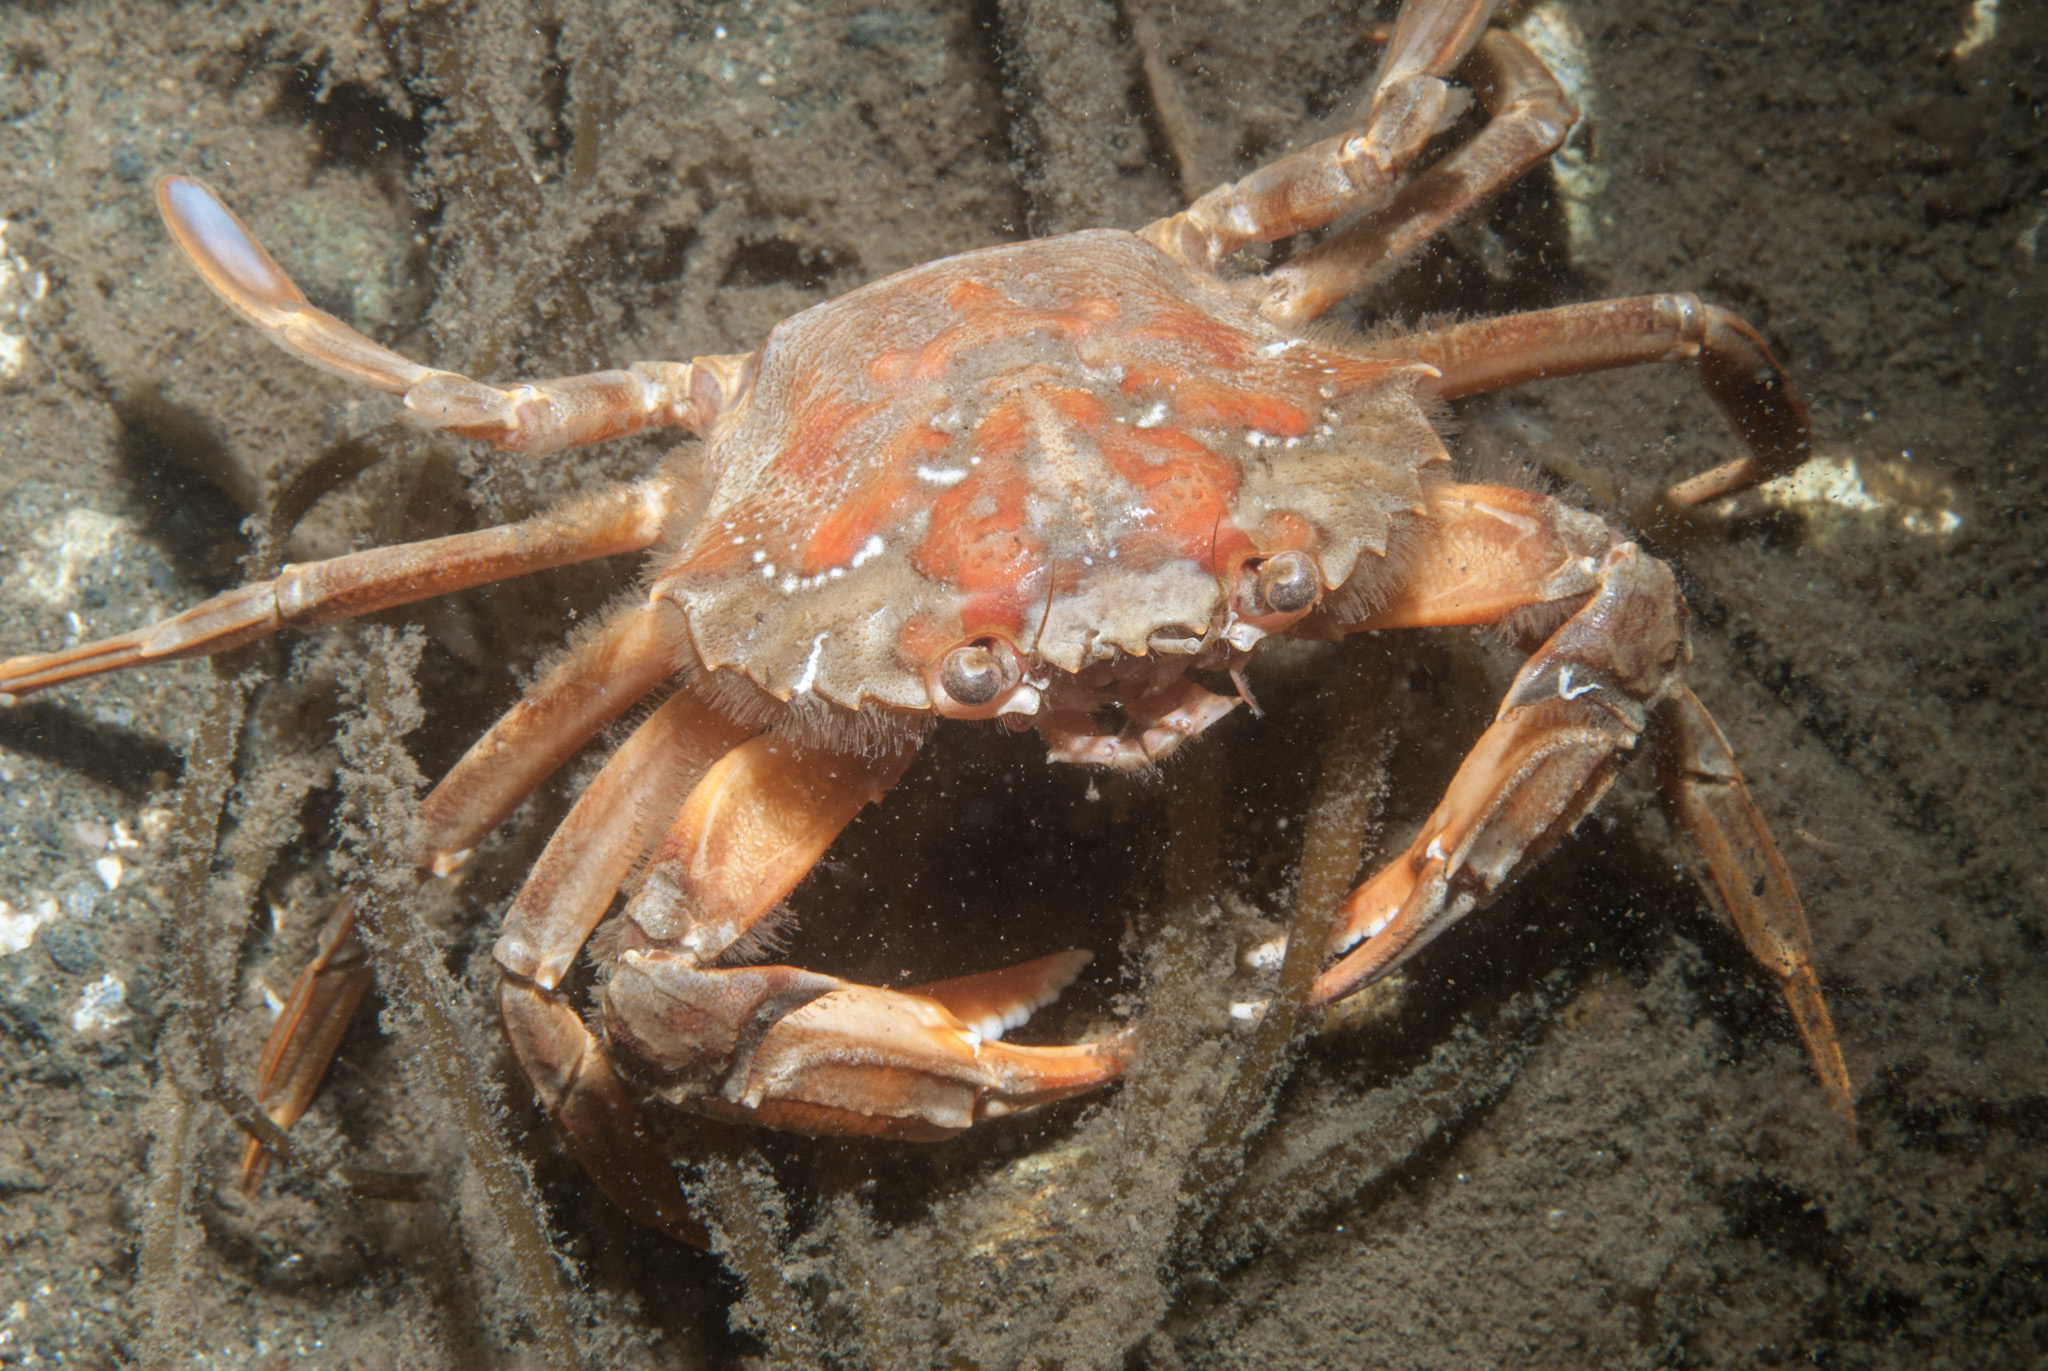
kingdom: Animalia
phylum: Arthropoda
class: Malacostraca
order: Decapoda
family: Polybiidae
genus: Liocarcinus
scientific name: Liocarcinus depurator
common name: Cleanser crab
